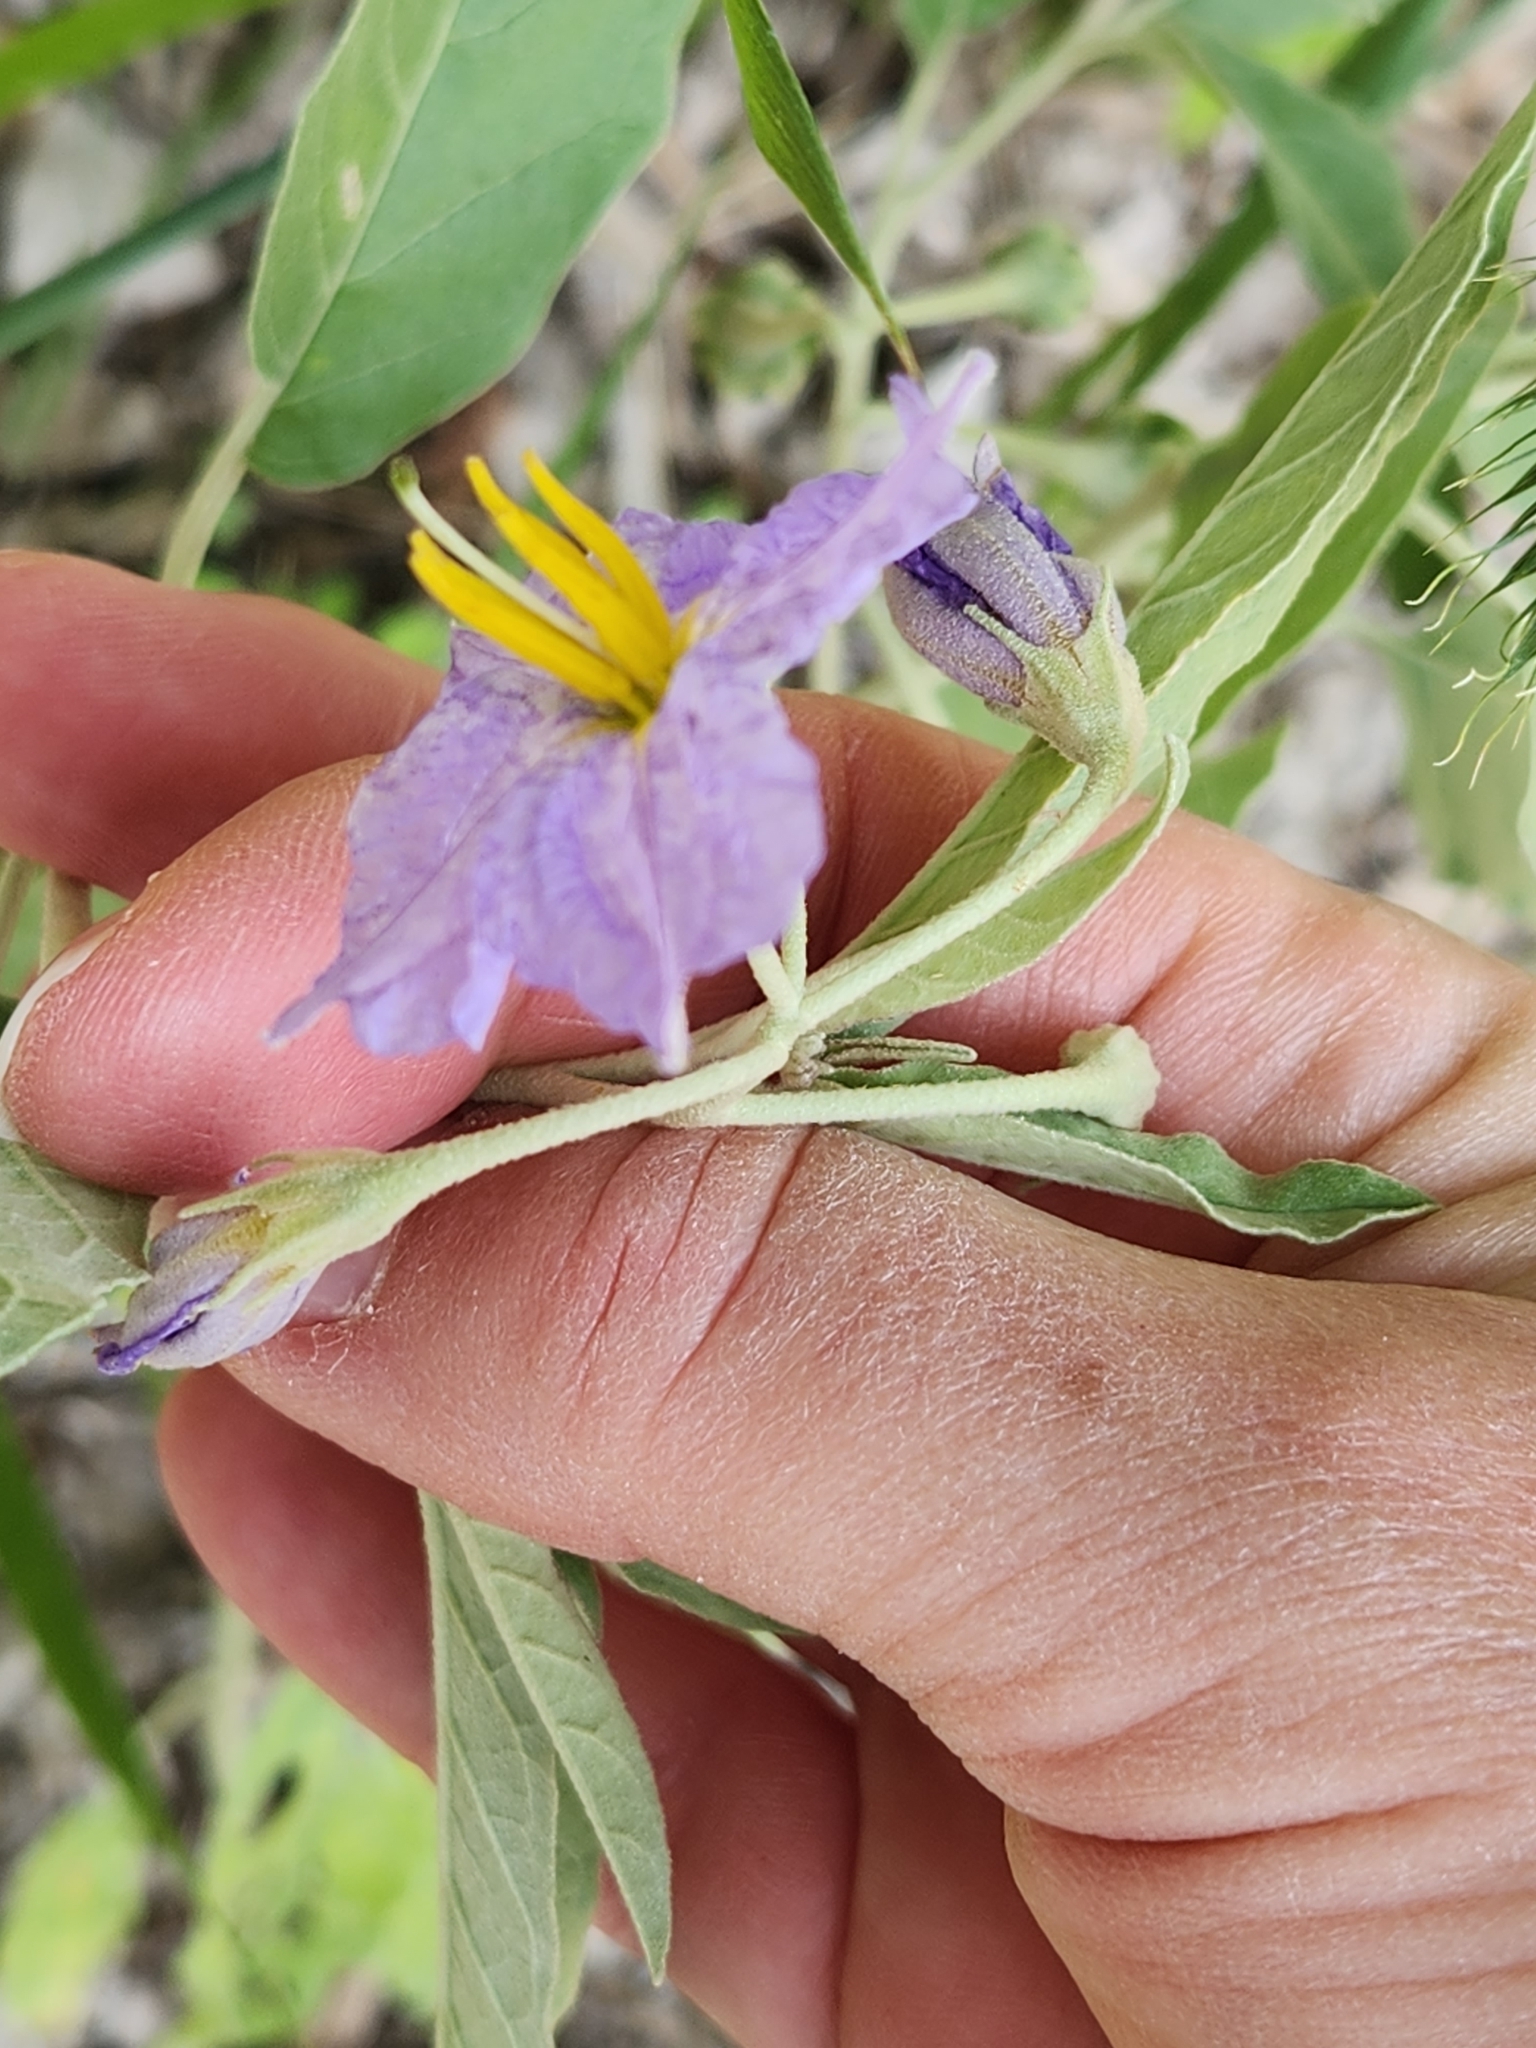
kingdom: Plantae
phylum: Tracheophyta
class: Magnoliopsida
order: Solanales
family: Solanaceae
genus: Solanum
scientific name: Solanum elaeagnifolium
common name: Silverleaf nightshade
